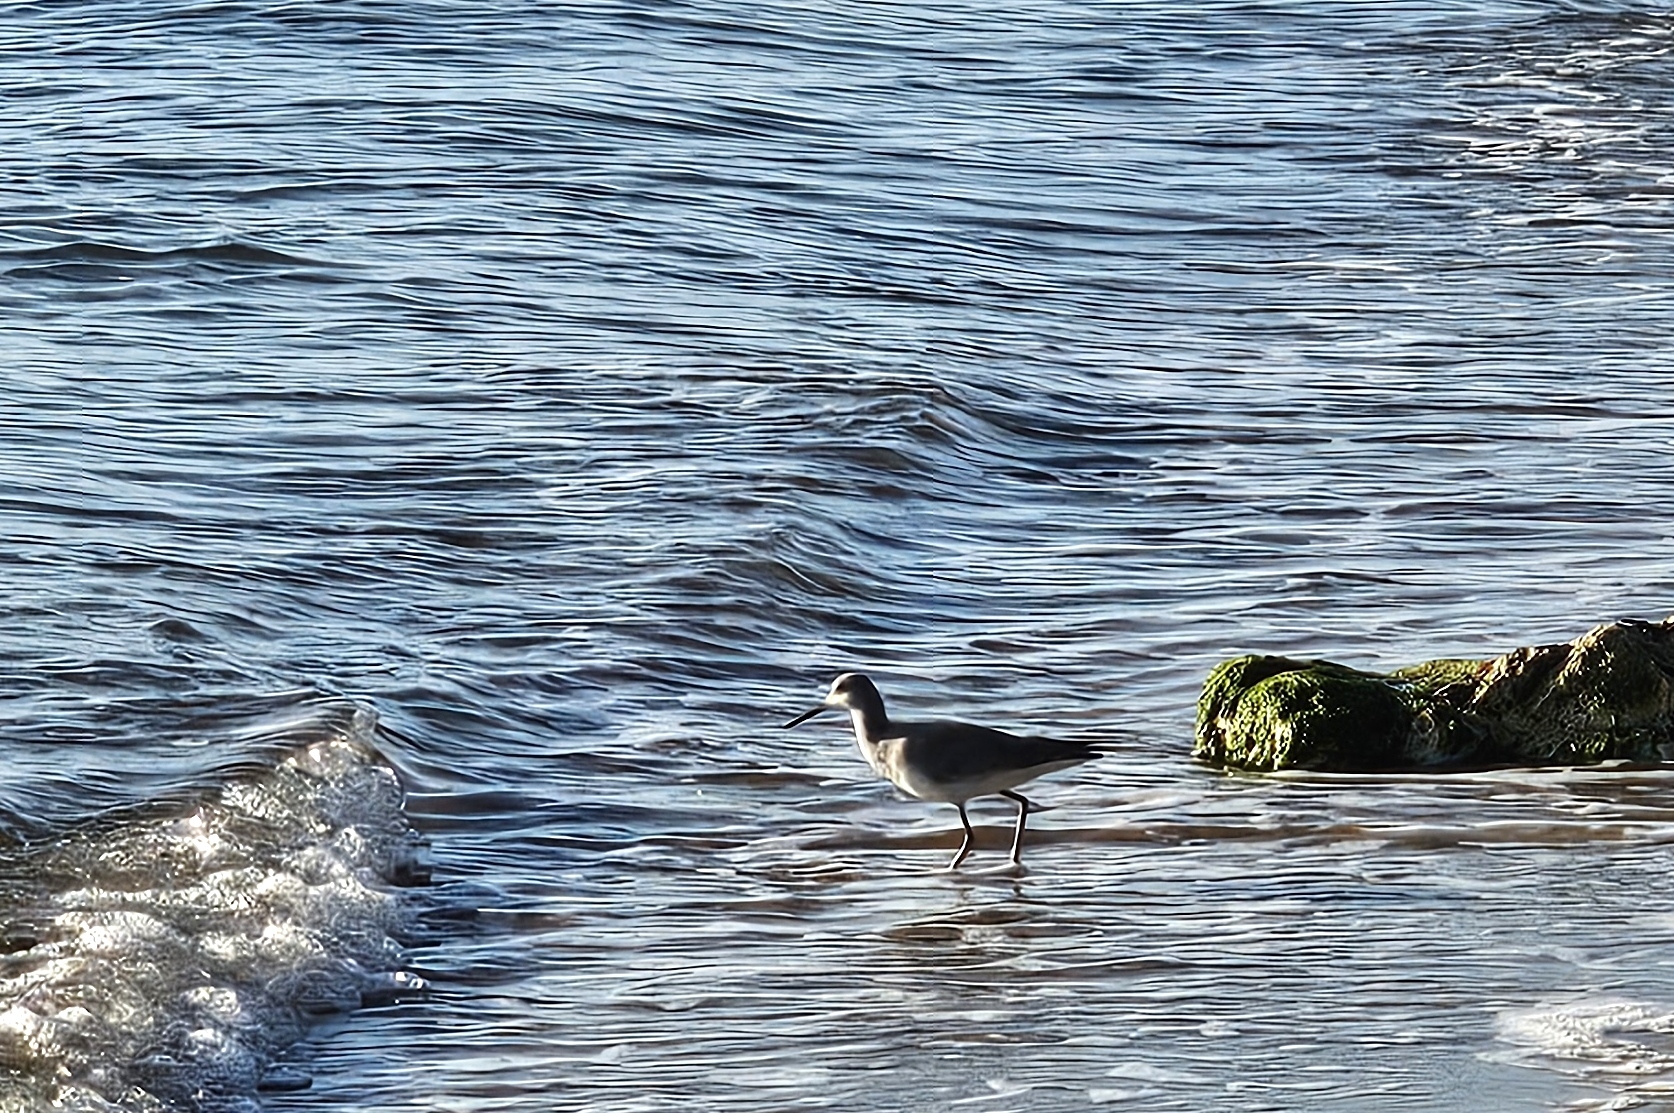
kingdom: Animalia
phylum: Chordata
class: Aves
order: Charadriiformes
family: Scolopacidae
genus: Tringa
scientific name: Tringa semipalmata
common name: Willet
